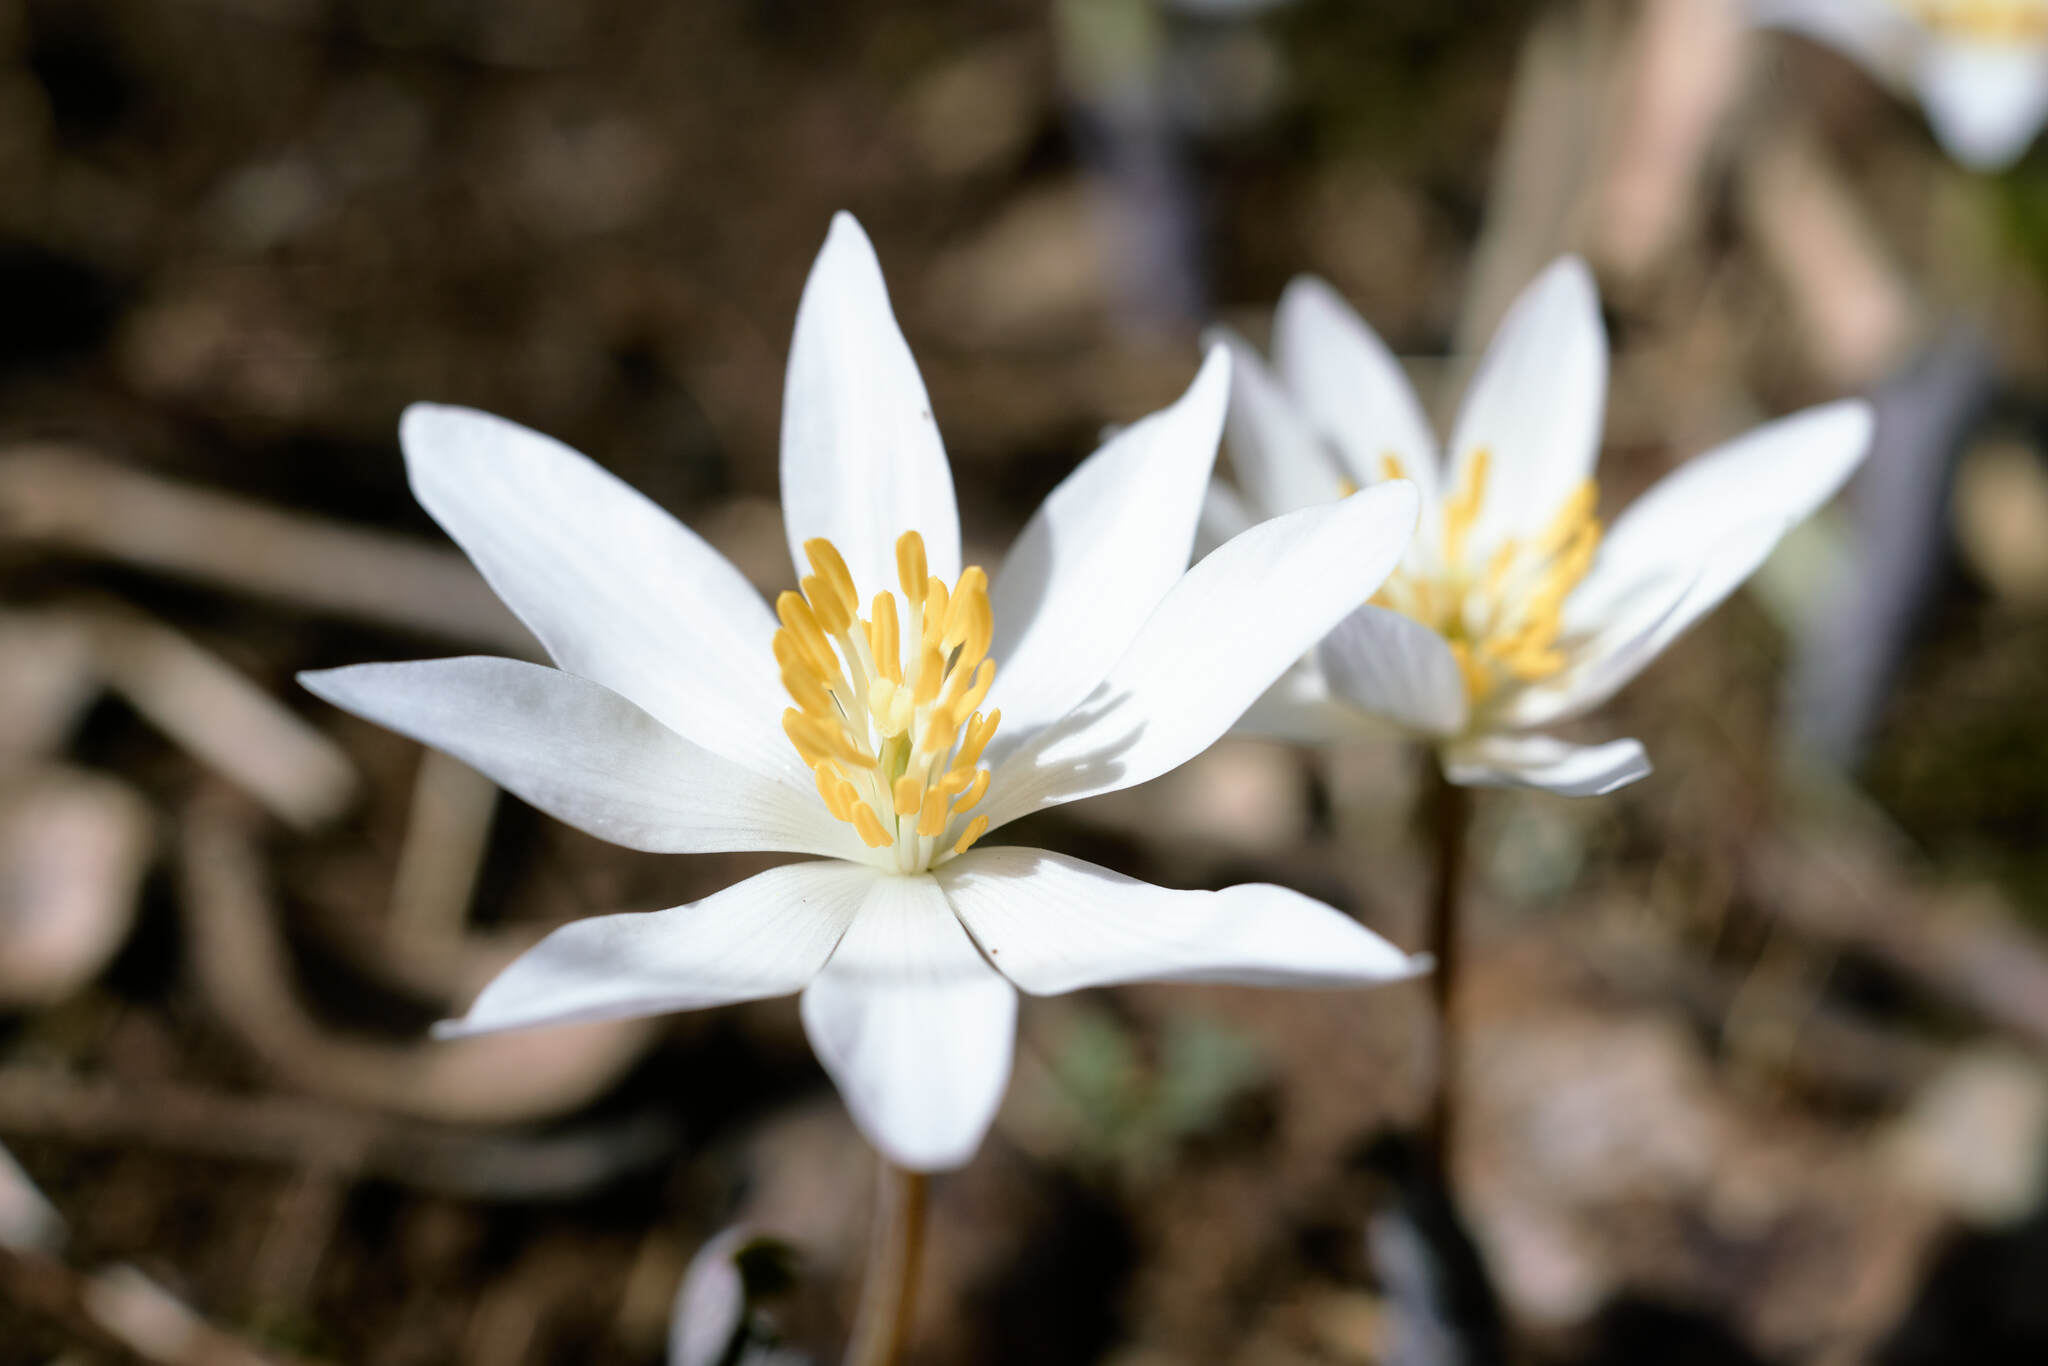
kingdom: Plantae
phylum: Tracheophyta
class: Magnoliopsida
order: Ranunculales
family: Papaveraceae
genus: Sanguinaria
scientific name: Sanguinaria canadensis
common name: Bloodroot
